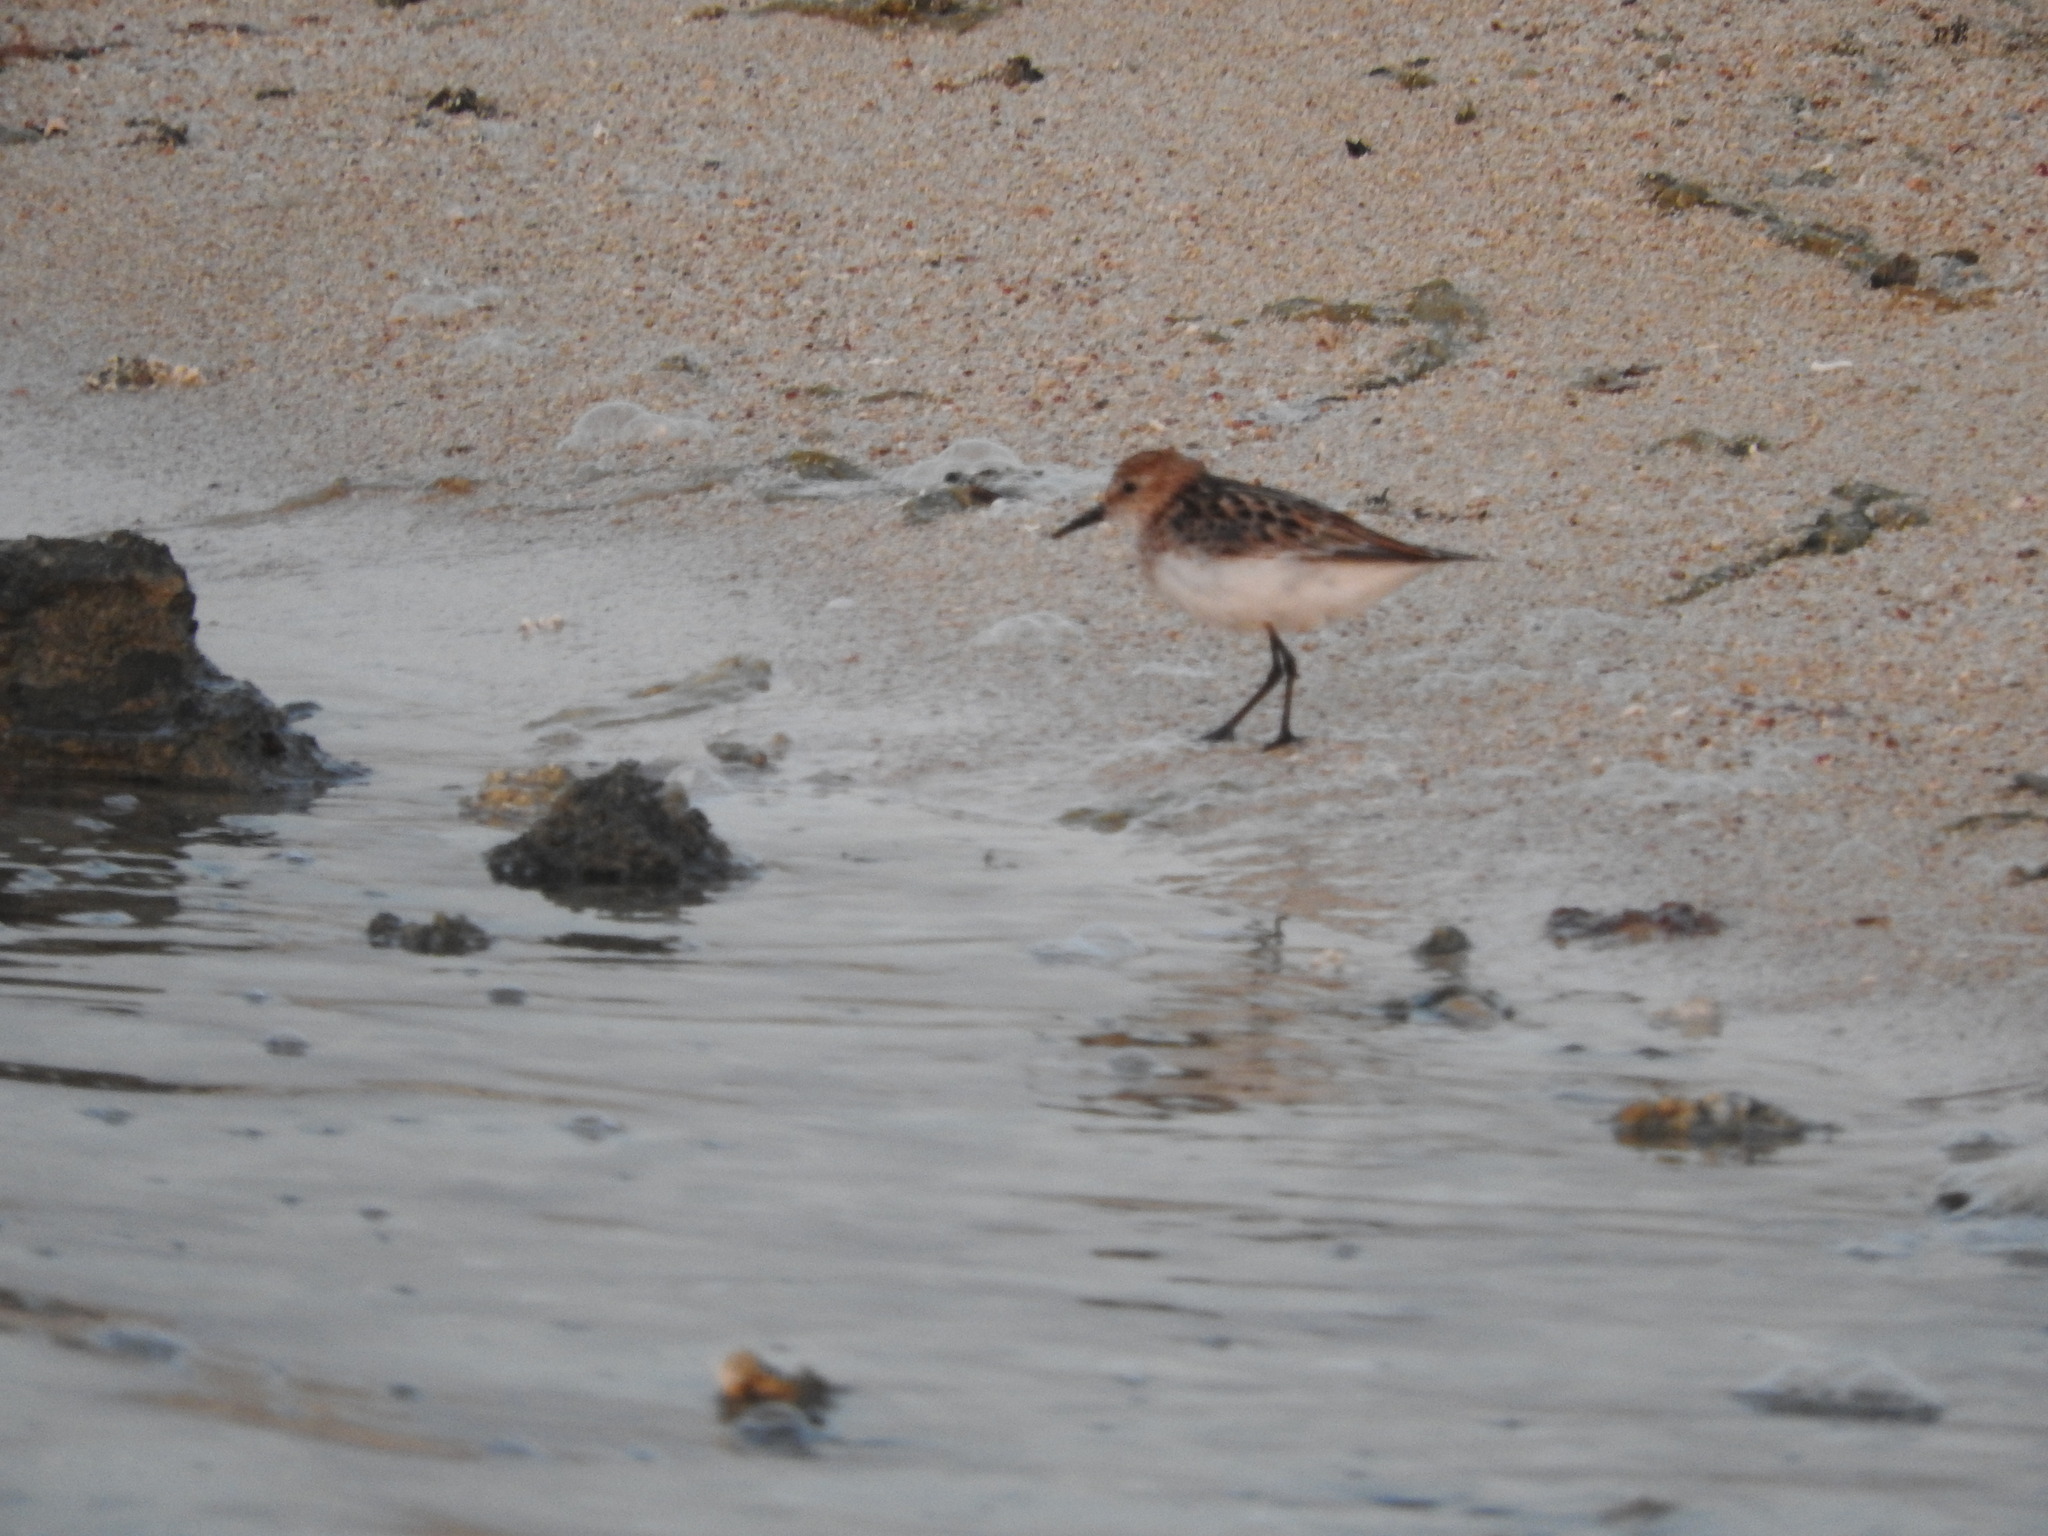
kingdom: Animalia
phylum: Chordata
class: Aves
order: Charadriiformes
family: Scolopacidae
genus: Calidris
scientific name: Calidris minuta
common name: Little stint
